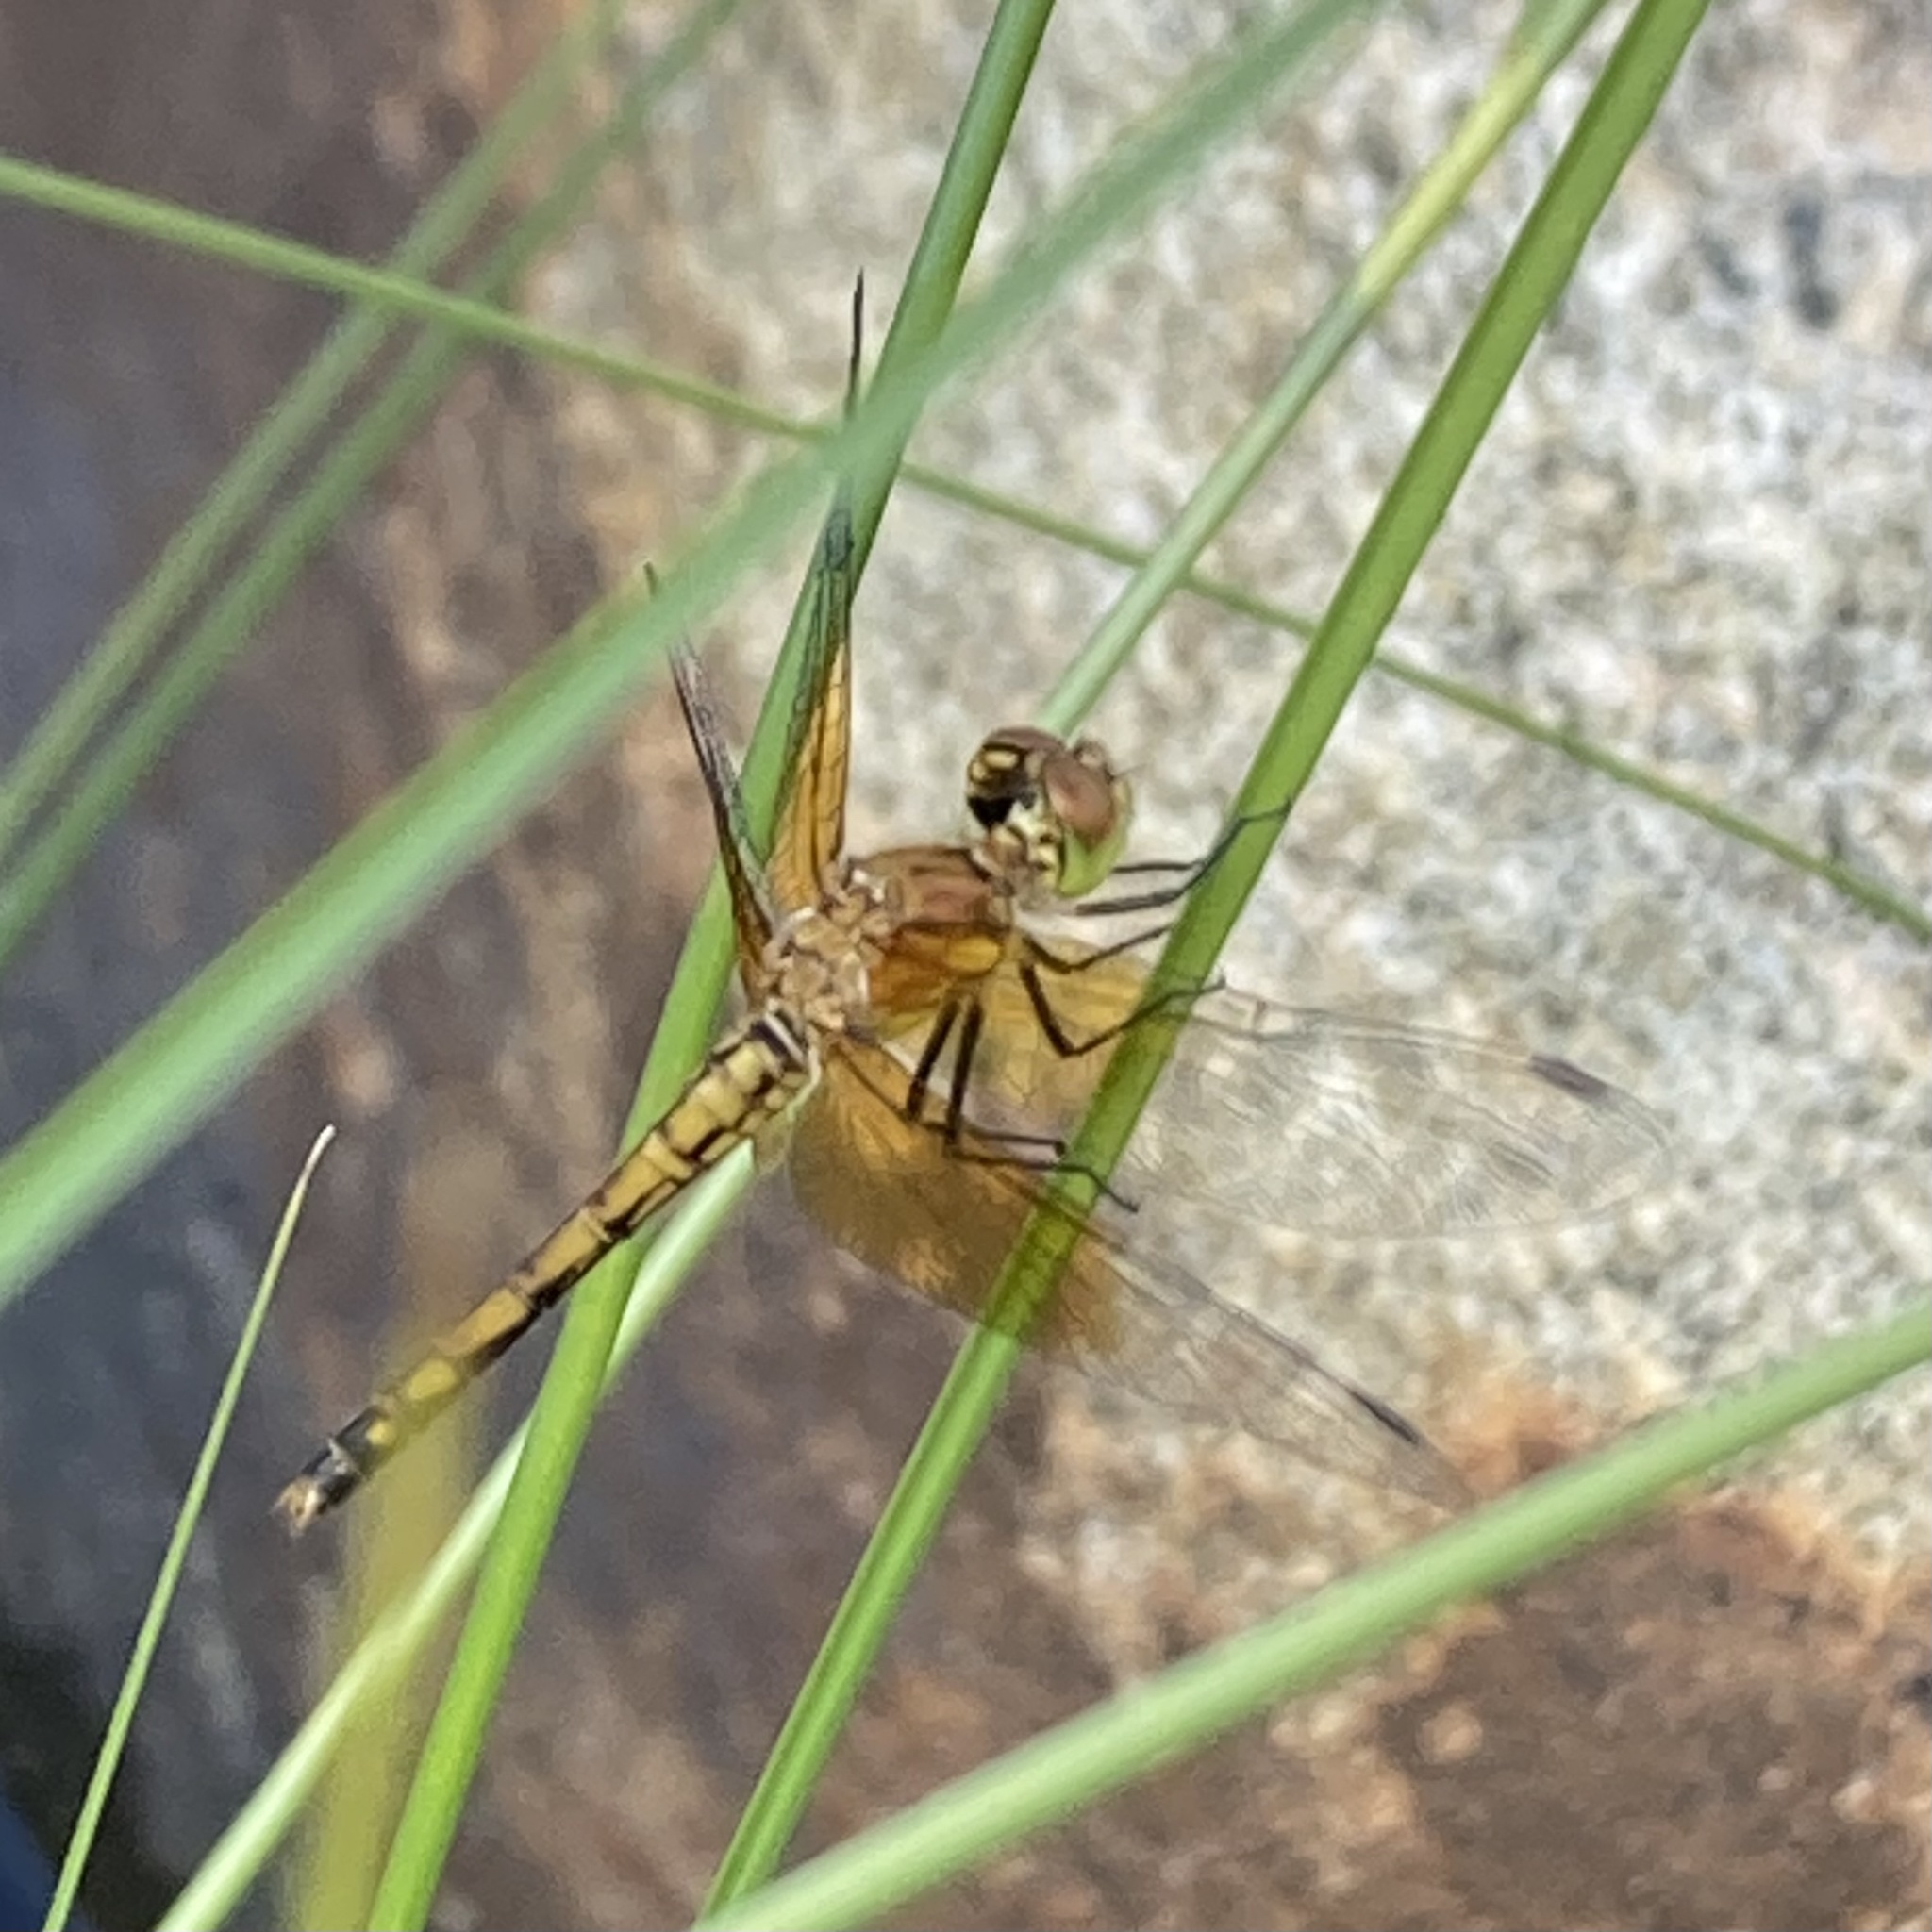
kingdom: Animalia
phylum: Arthropoda
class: Insecta
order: Odonata
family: Libellulidae
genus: Sympetrum
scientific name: Sympetrum semicinctum
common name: Band-winged meadowhawk
